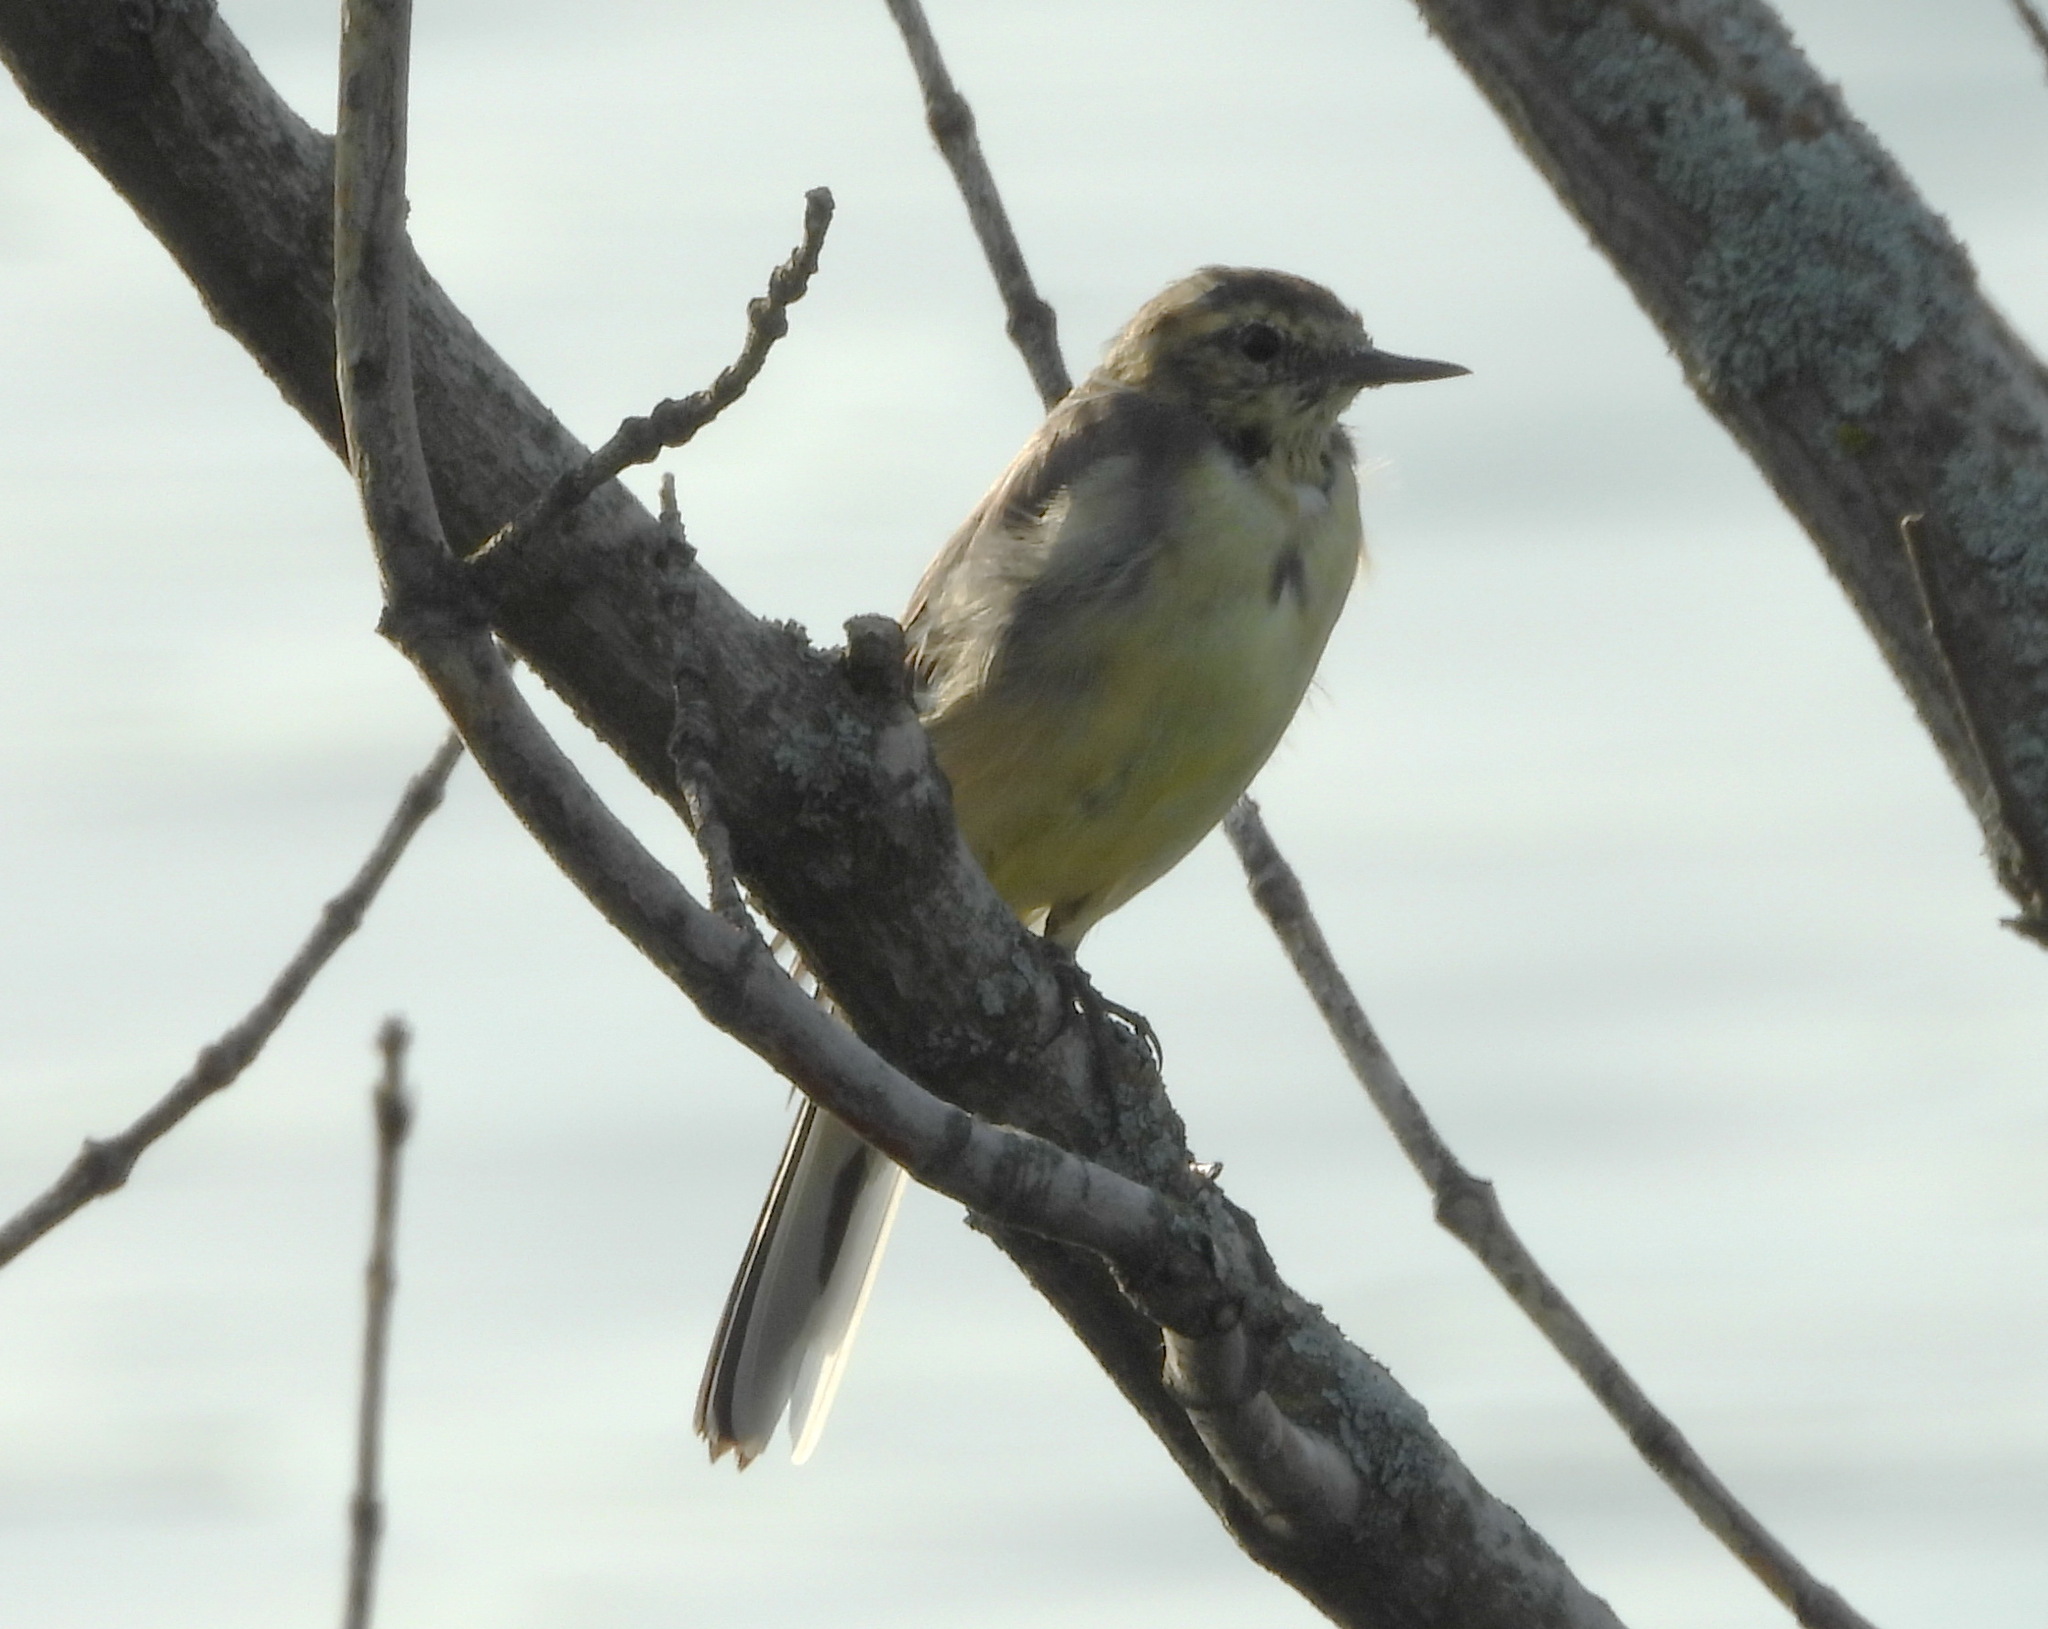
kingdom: Animalia
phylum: Chordata
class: Aves
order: Passeriformes
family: Motacillidae
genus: Motacilla
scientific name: Motacilla citreola
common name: Citrine wagtail
